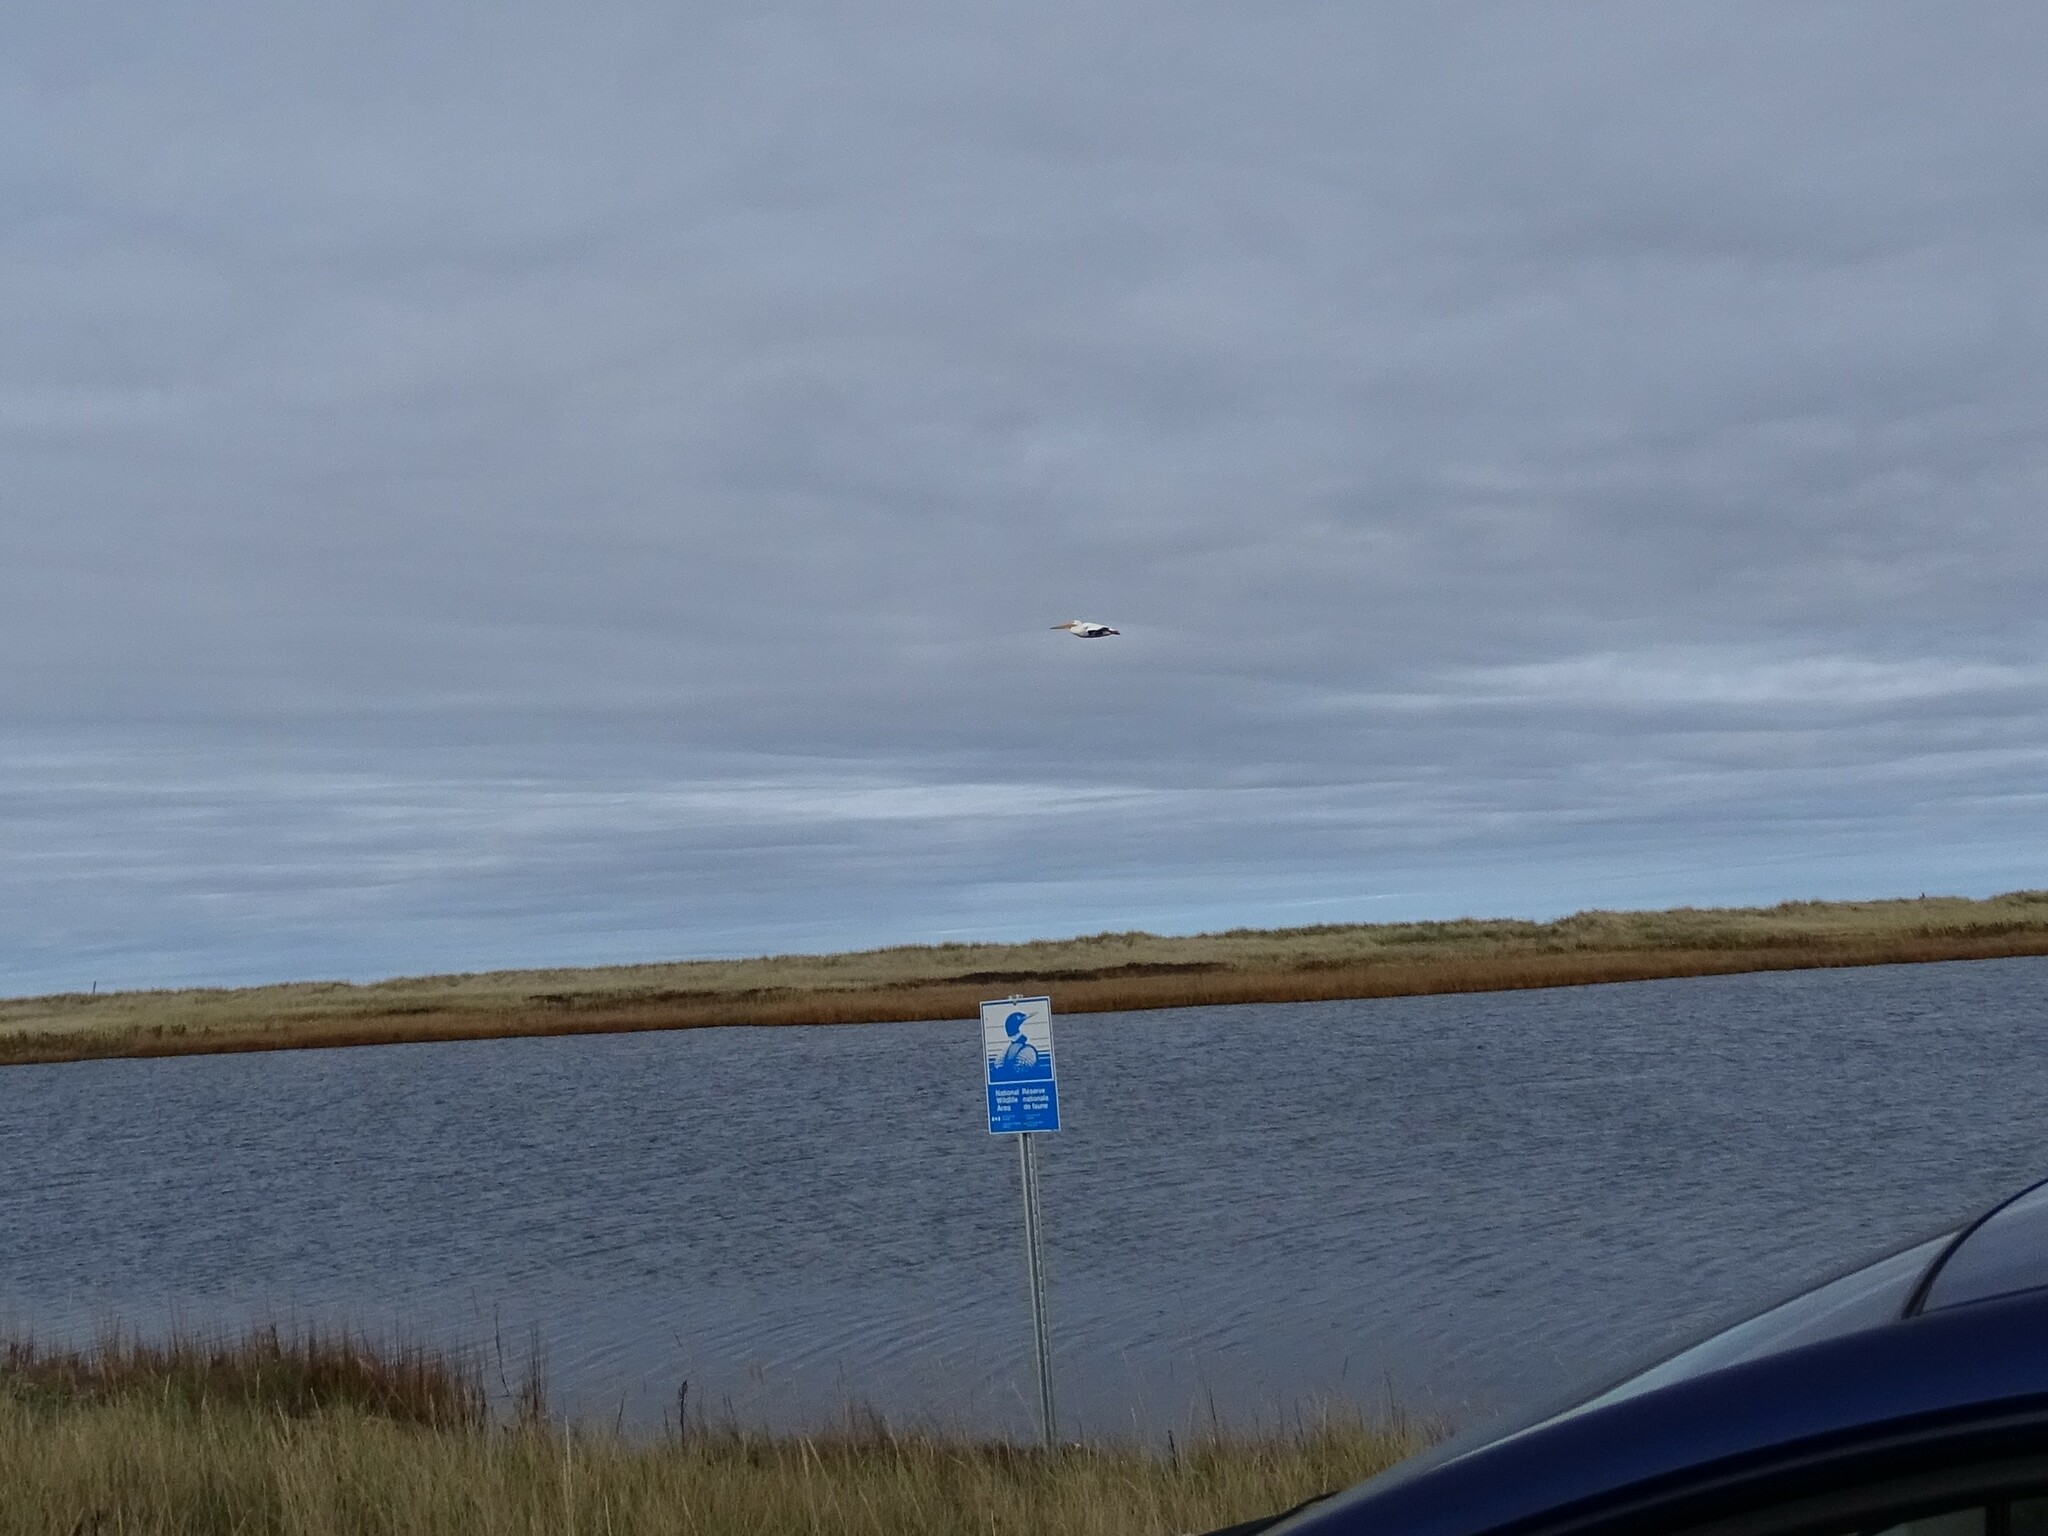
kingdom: Animalia
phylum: Chordata
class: Aves
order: Pelecaniformes
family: Pelecanidae
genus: Pelecanus
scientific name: Pelecanus erythrorhynchos
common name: American white pelican
